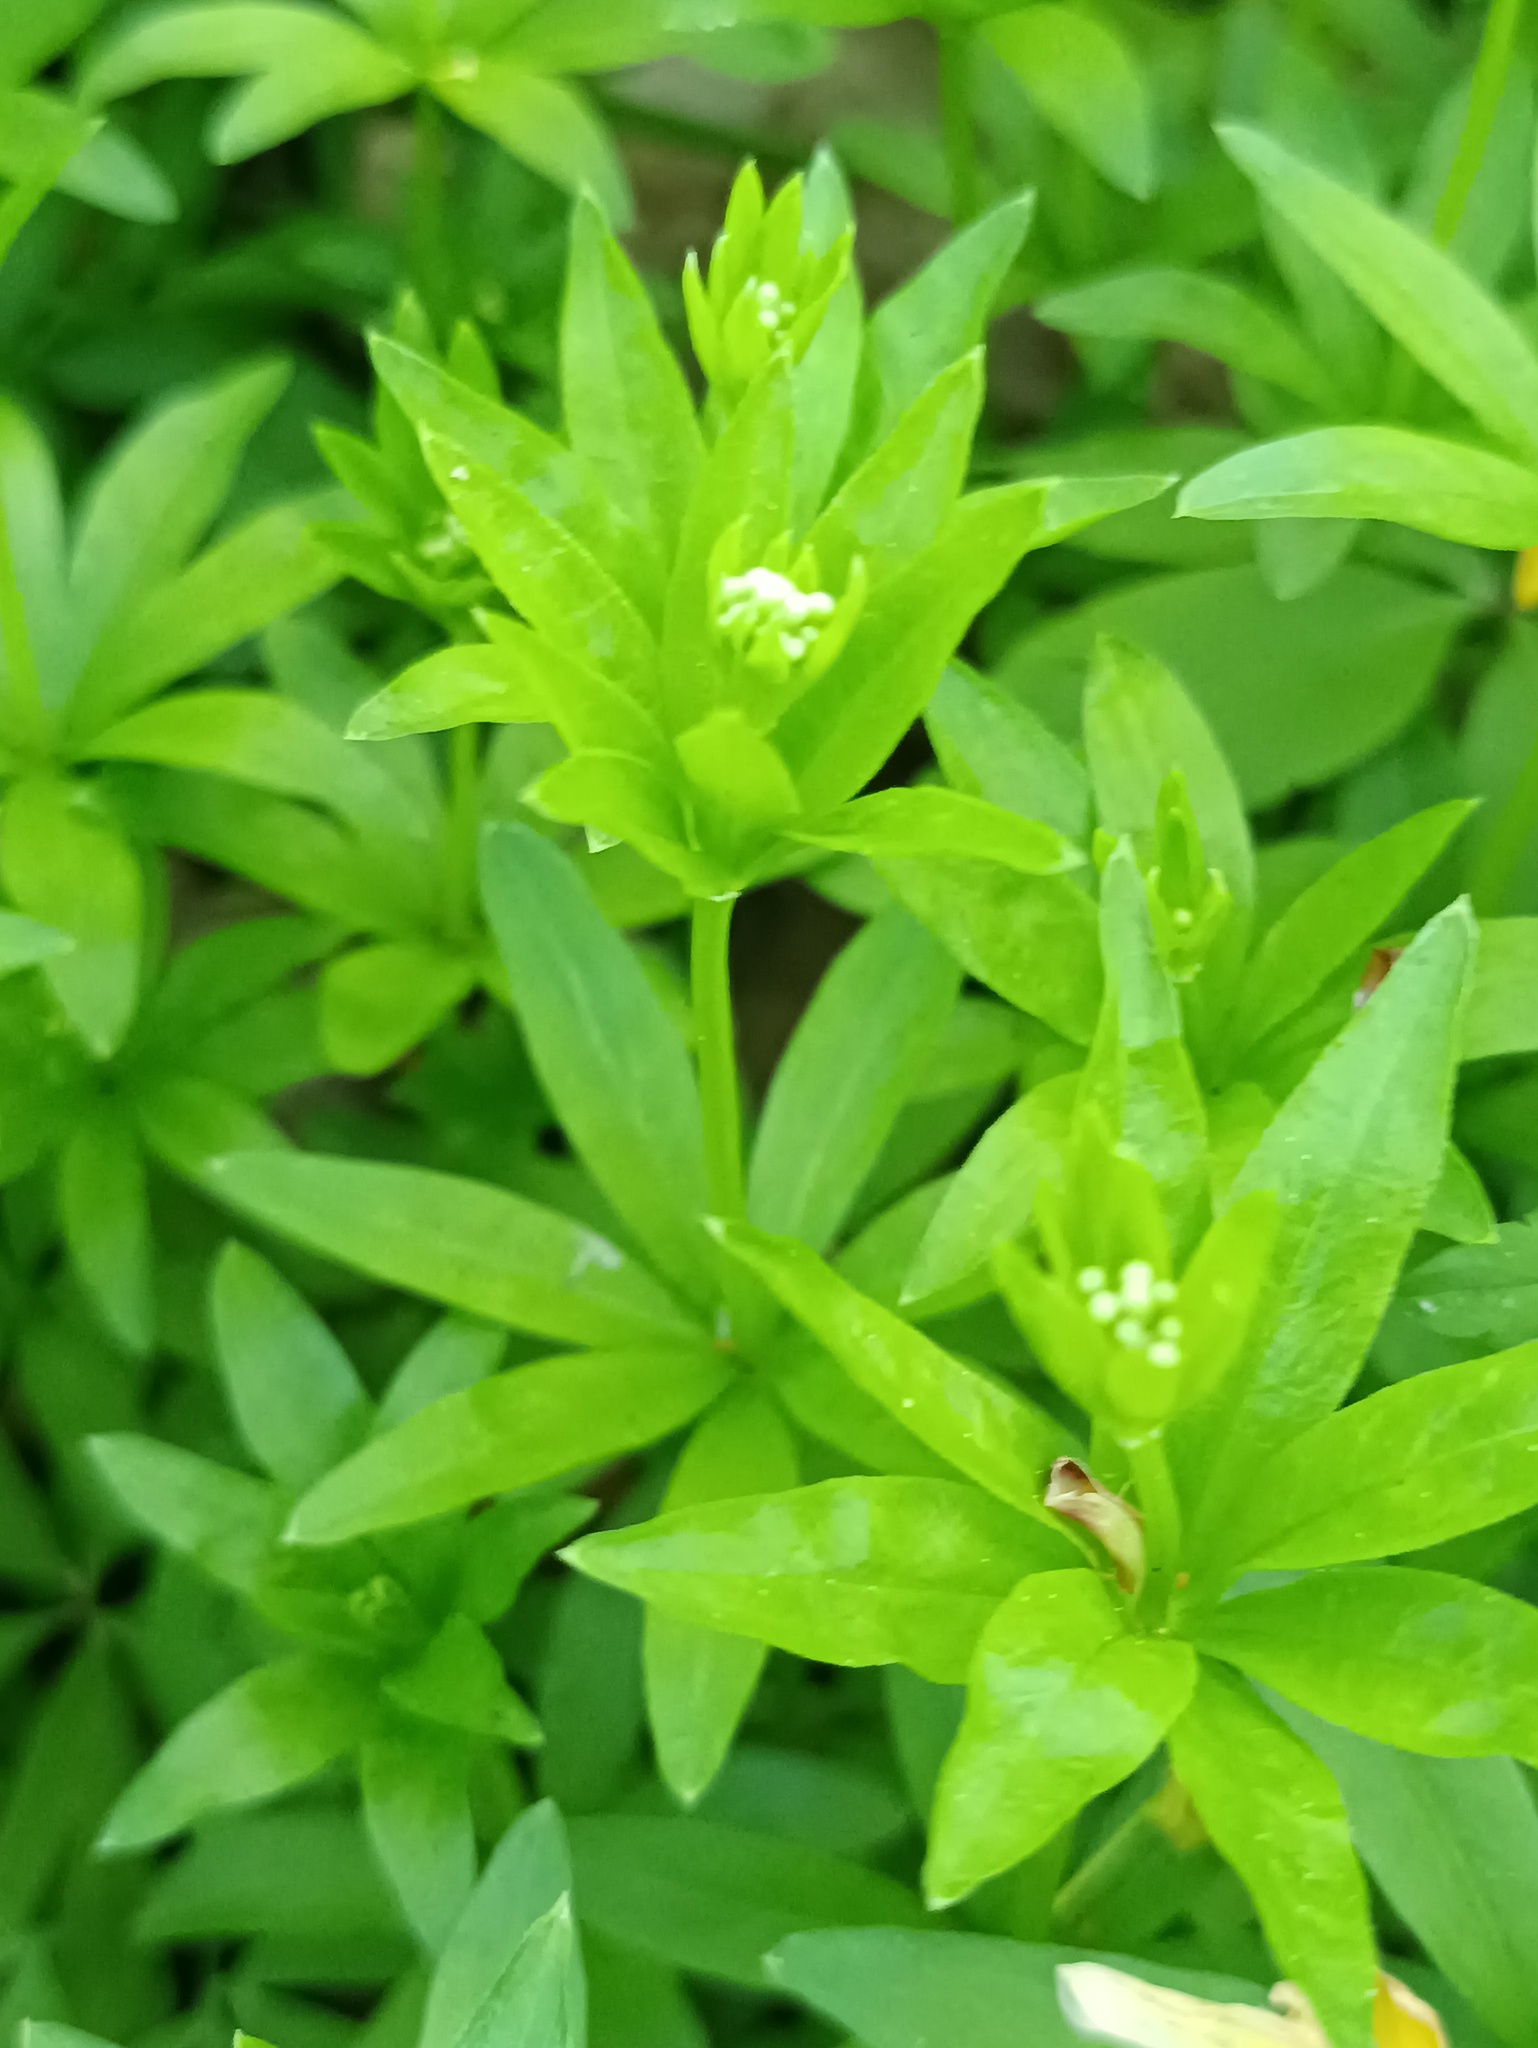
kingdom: Plantae
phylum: Tracheophyta
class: Magnoliopsida
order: Gentianales
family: Rubiaceae
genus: Galium
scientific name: Galium odoratum
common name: Sweet woodruff
